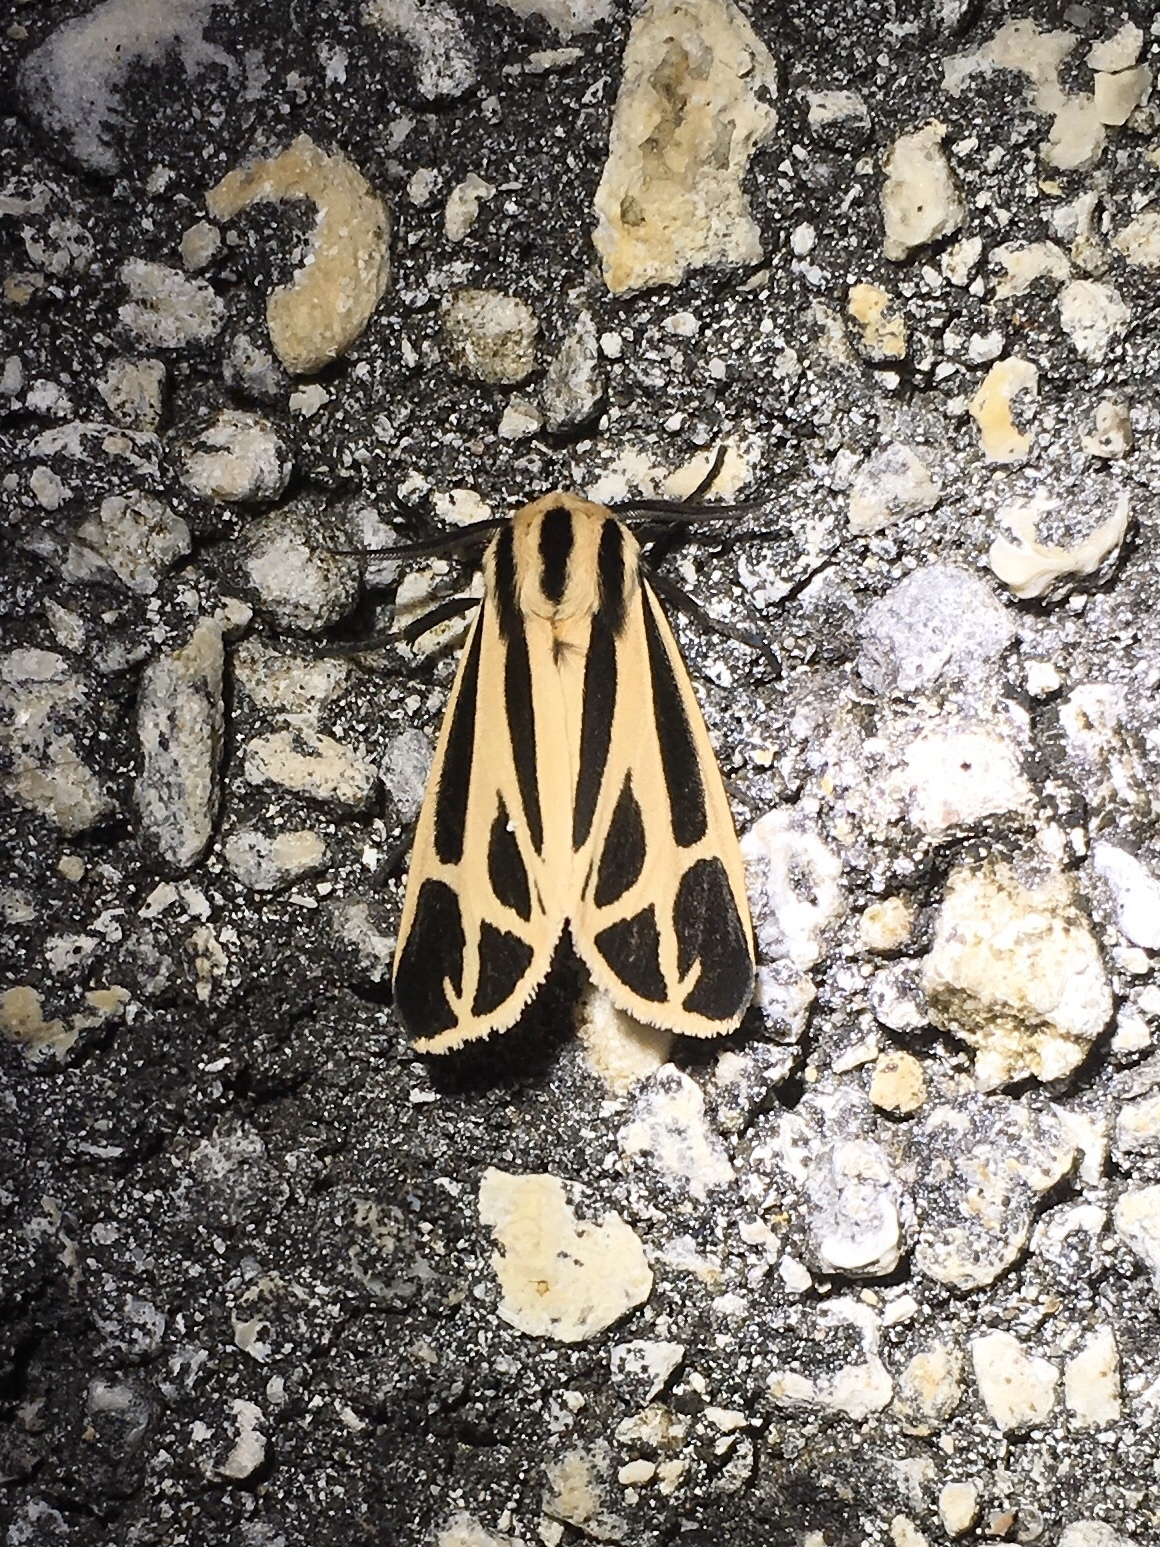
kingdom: Animalia
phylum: Arthropoda
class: Insecta
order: Lepidoptera
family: Erebidae
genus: Apantesis
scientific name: Apantesis phalerata
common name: Harnessed tiger moth
